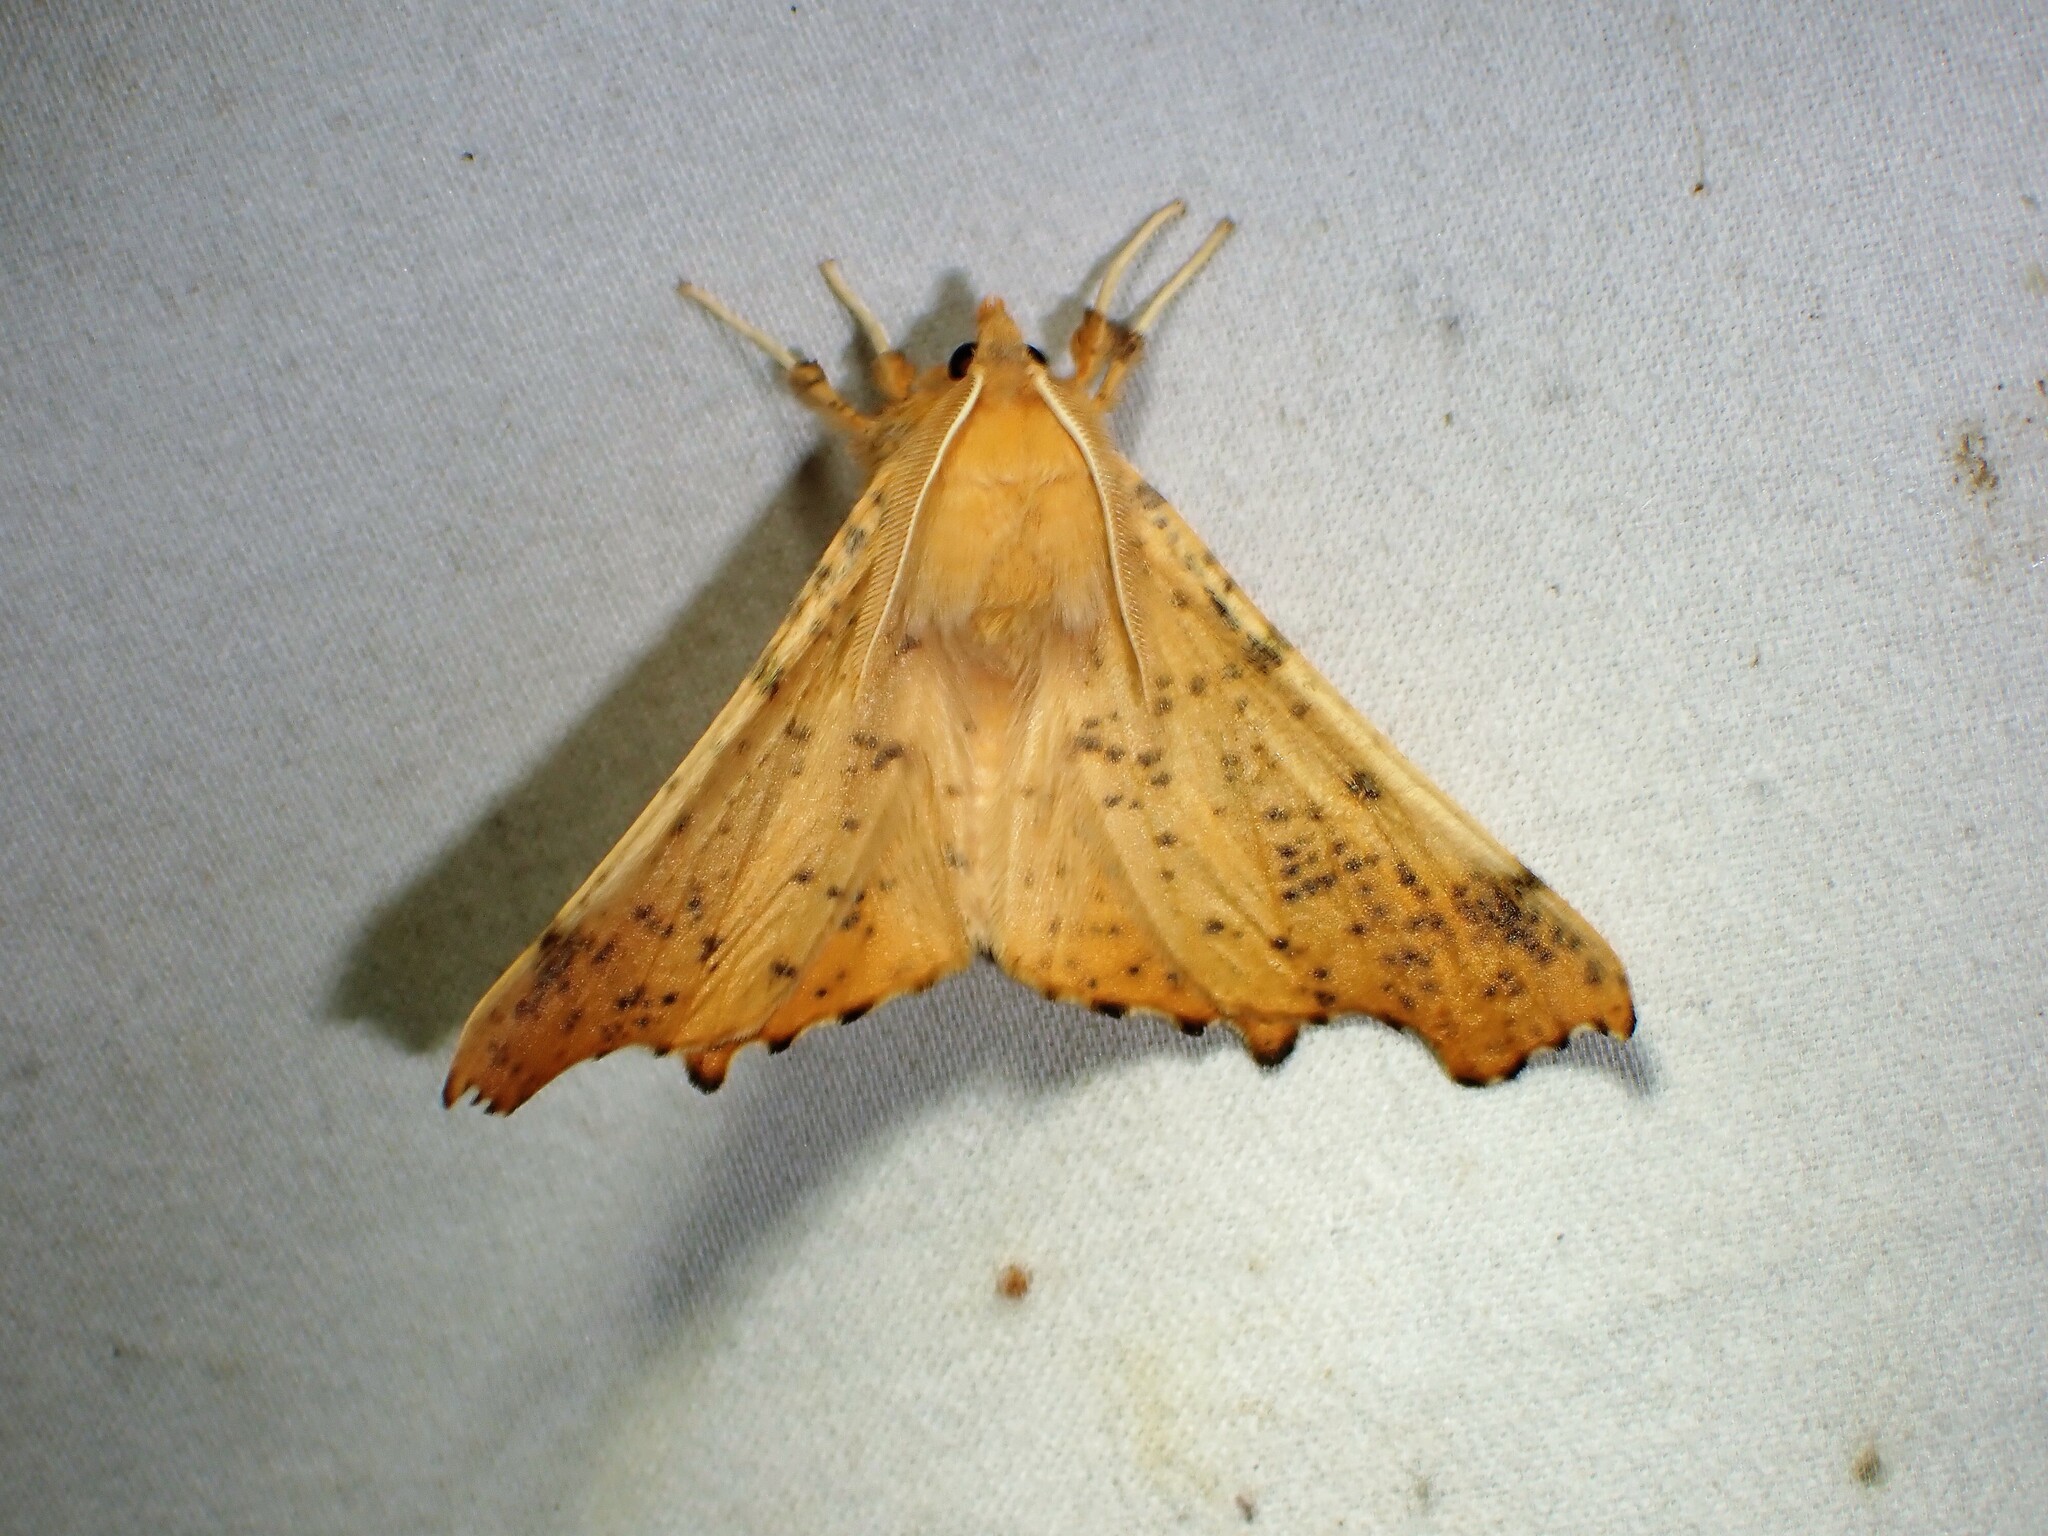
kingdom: Animalia
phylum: Arthropoda
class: Insecta
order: Lepidoptera
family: Geometridae
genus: Ennomos
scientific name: Ennomos magnaria
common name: Maple spanworm
